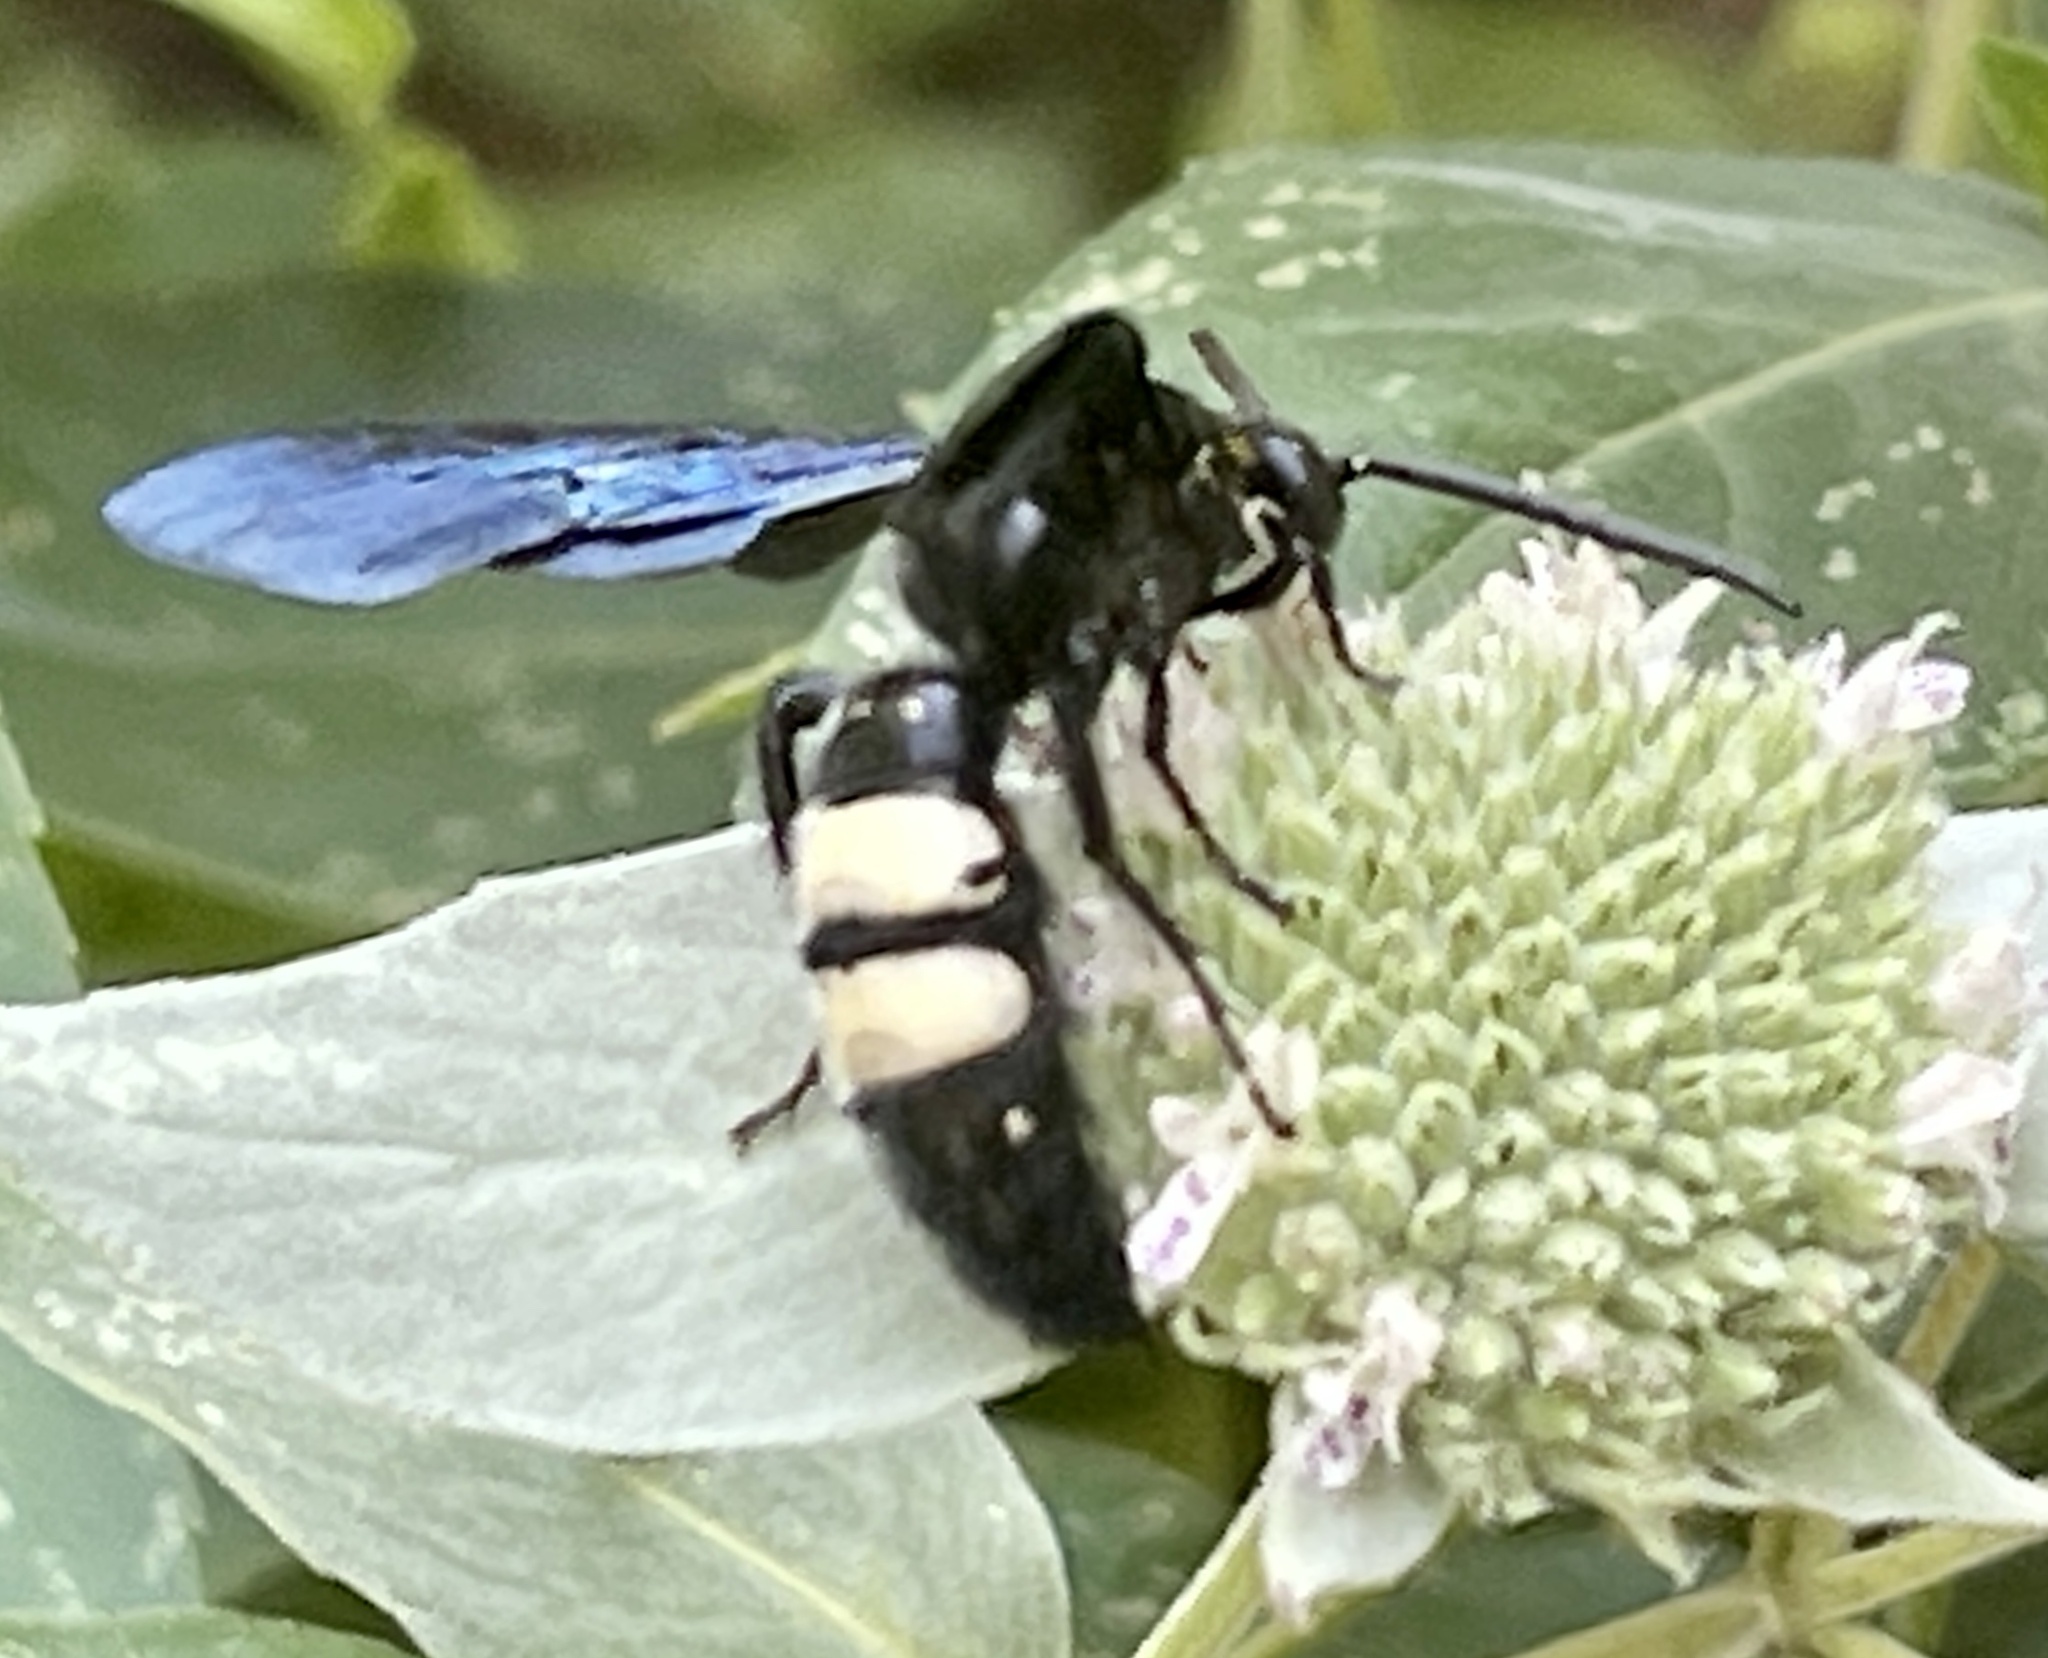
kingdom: Animalia
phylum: Arthropoda
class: Insecta
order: Hymenoptera
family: Scoliidae
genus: Scolia
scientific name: Scolia bicincta
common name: Double-banded scoliid wasp
